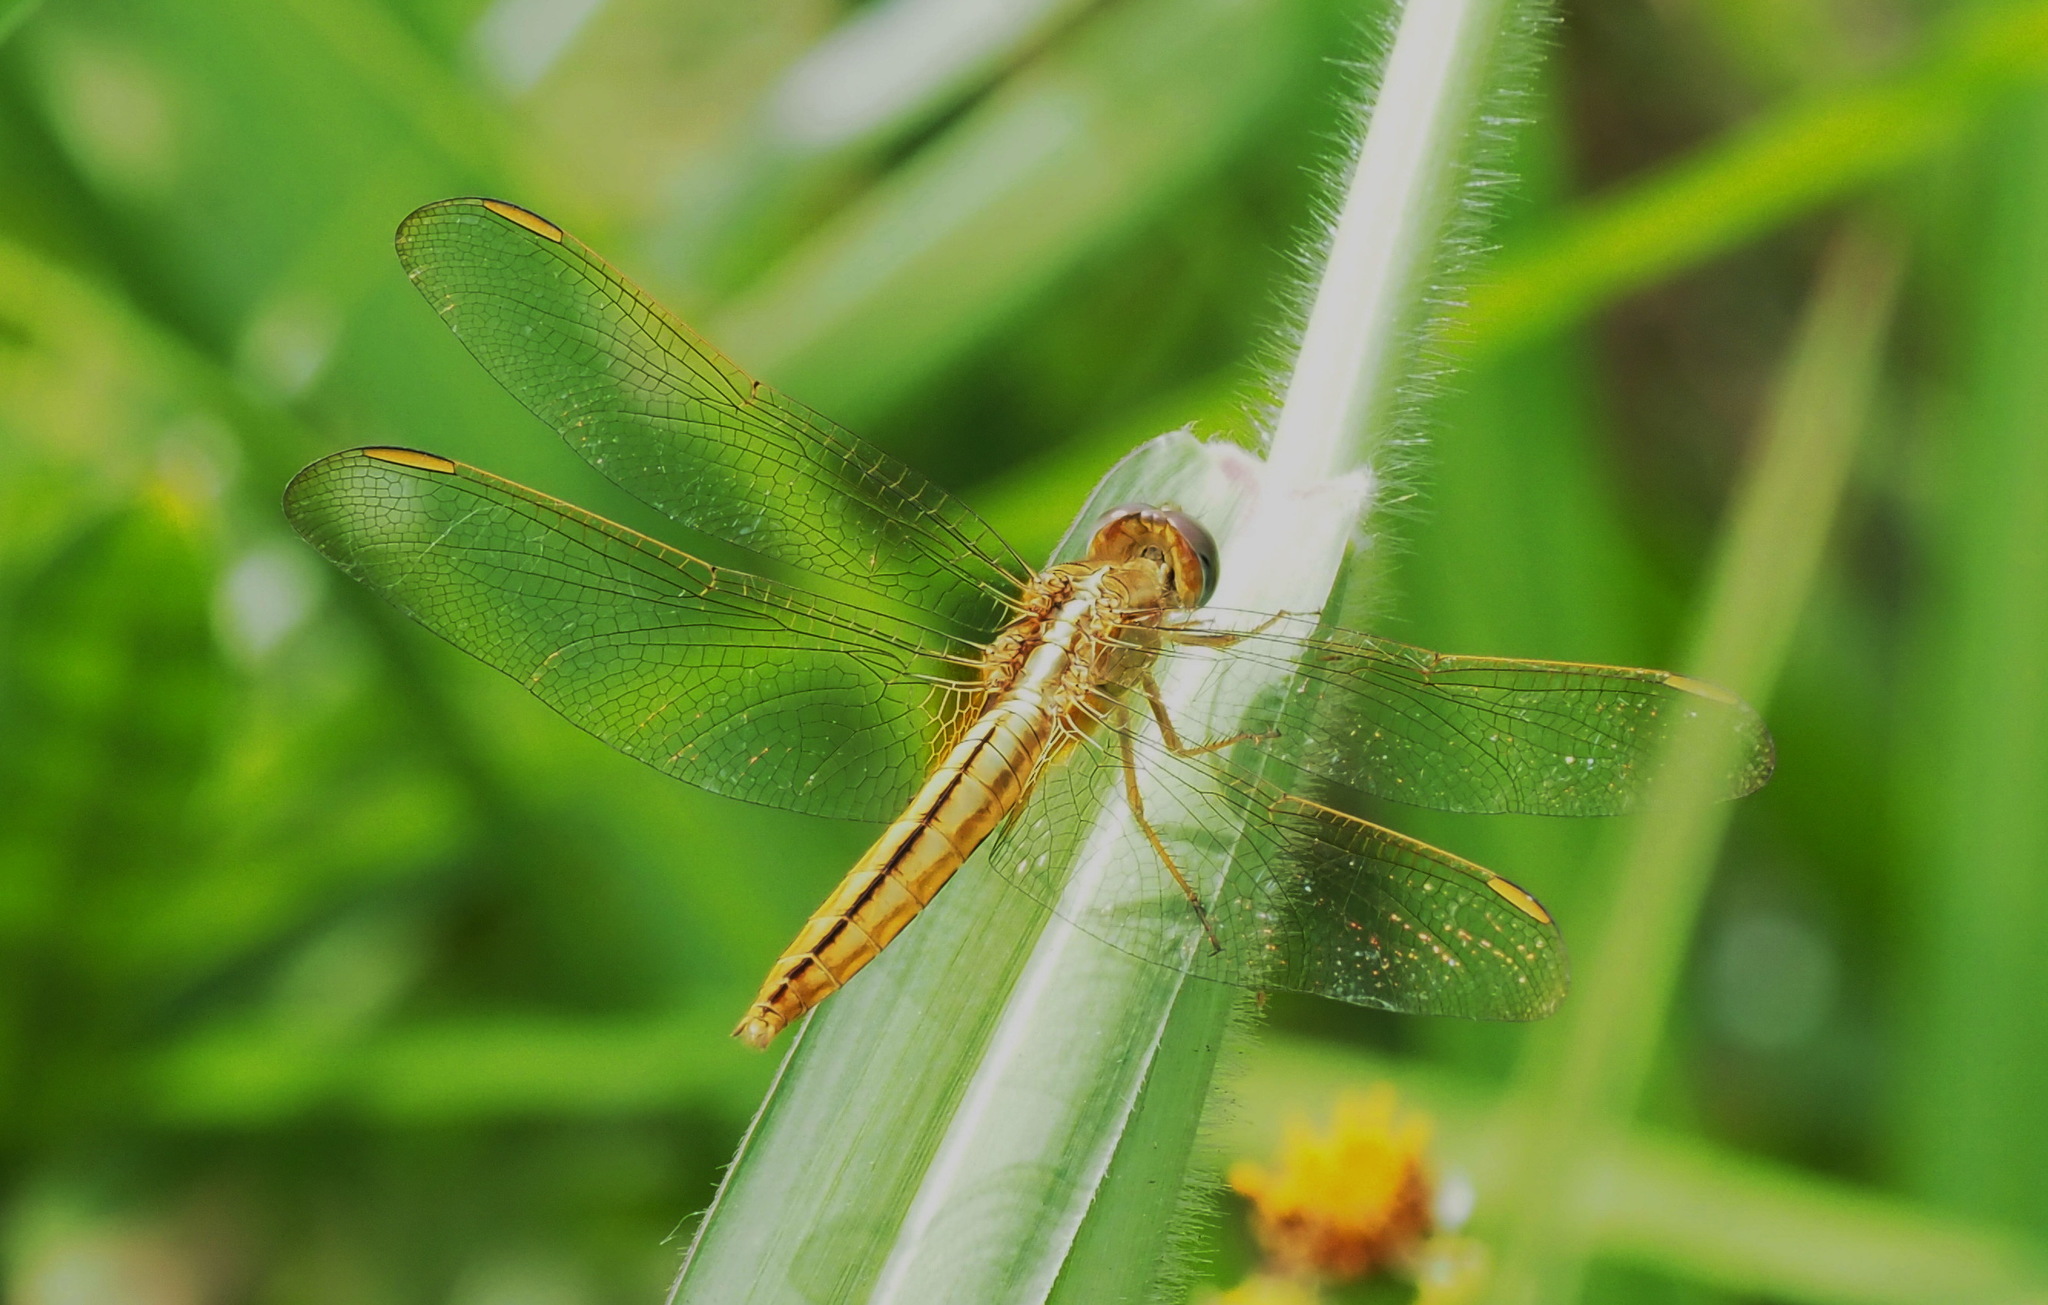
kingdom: Animalia
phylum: Arthropoda
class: Insecta
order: Odonata
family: Libellulidae
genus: Crocothemis
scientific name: Crocothemis servilia
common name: Scarlet skimmer
